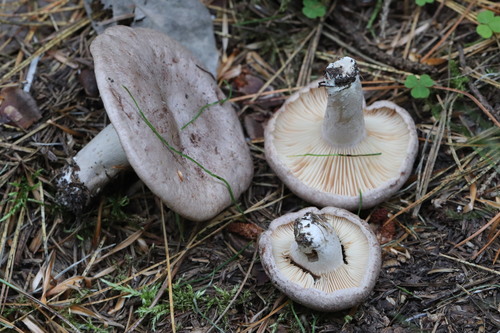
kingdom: Fungi
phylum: Basidiomycota
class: Agaricomycetes
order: Russulales
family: Russulaceae
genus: Lactarius
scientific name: Lactarius flexuosus
